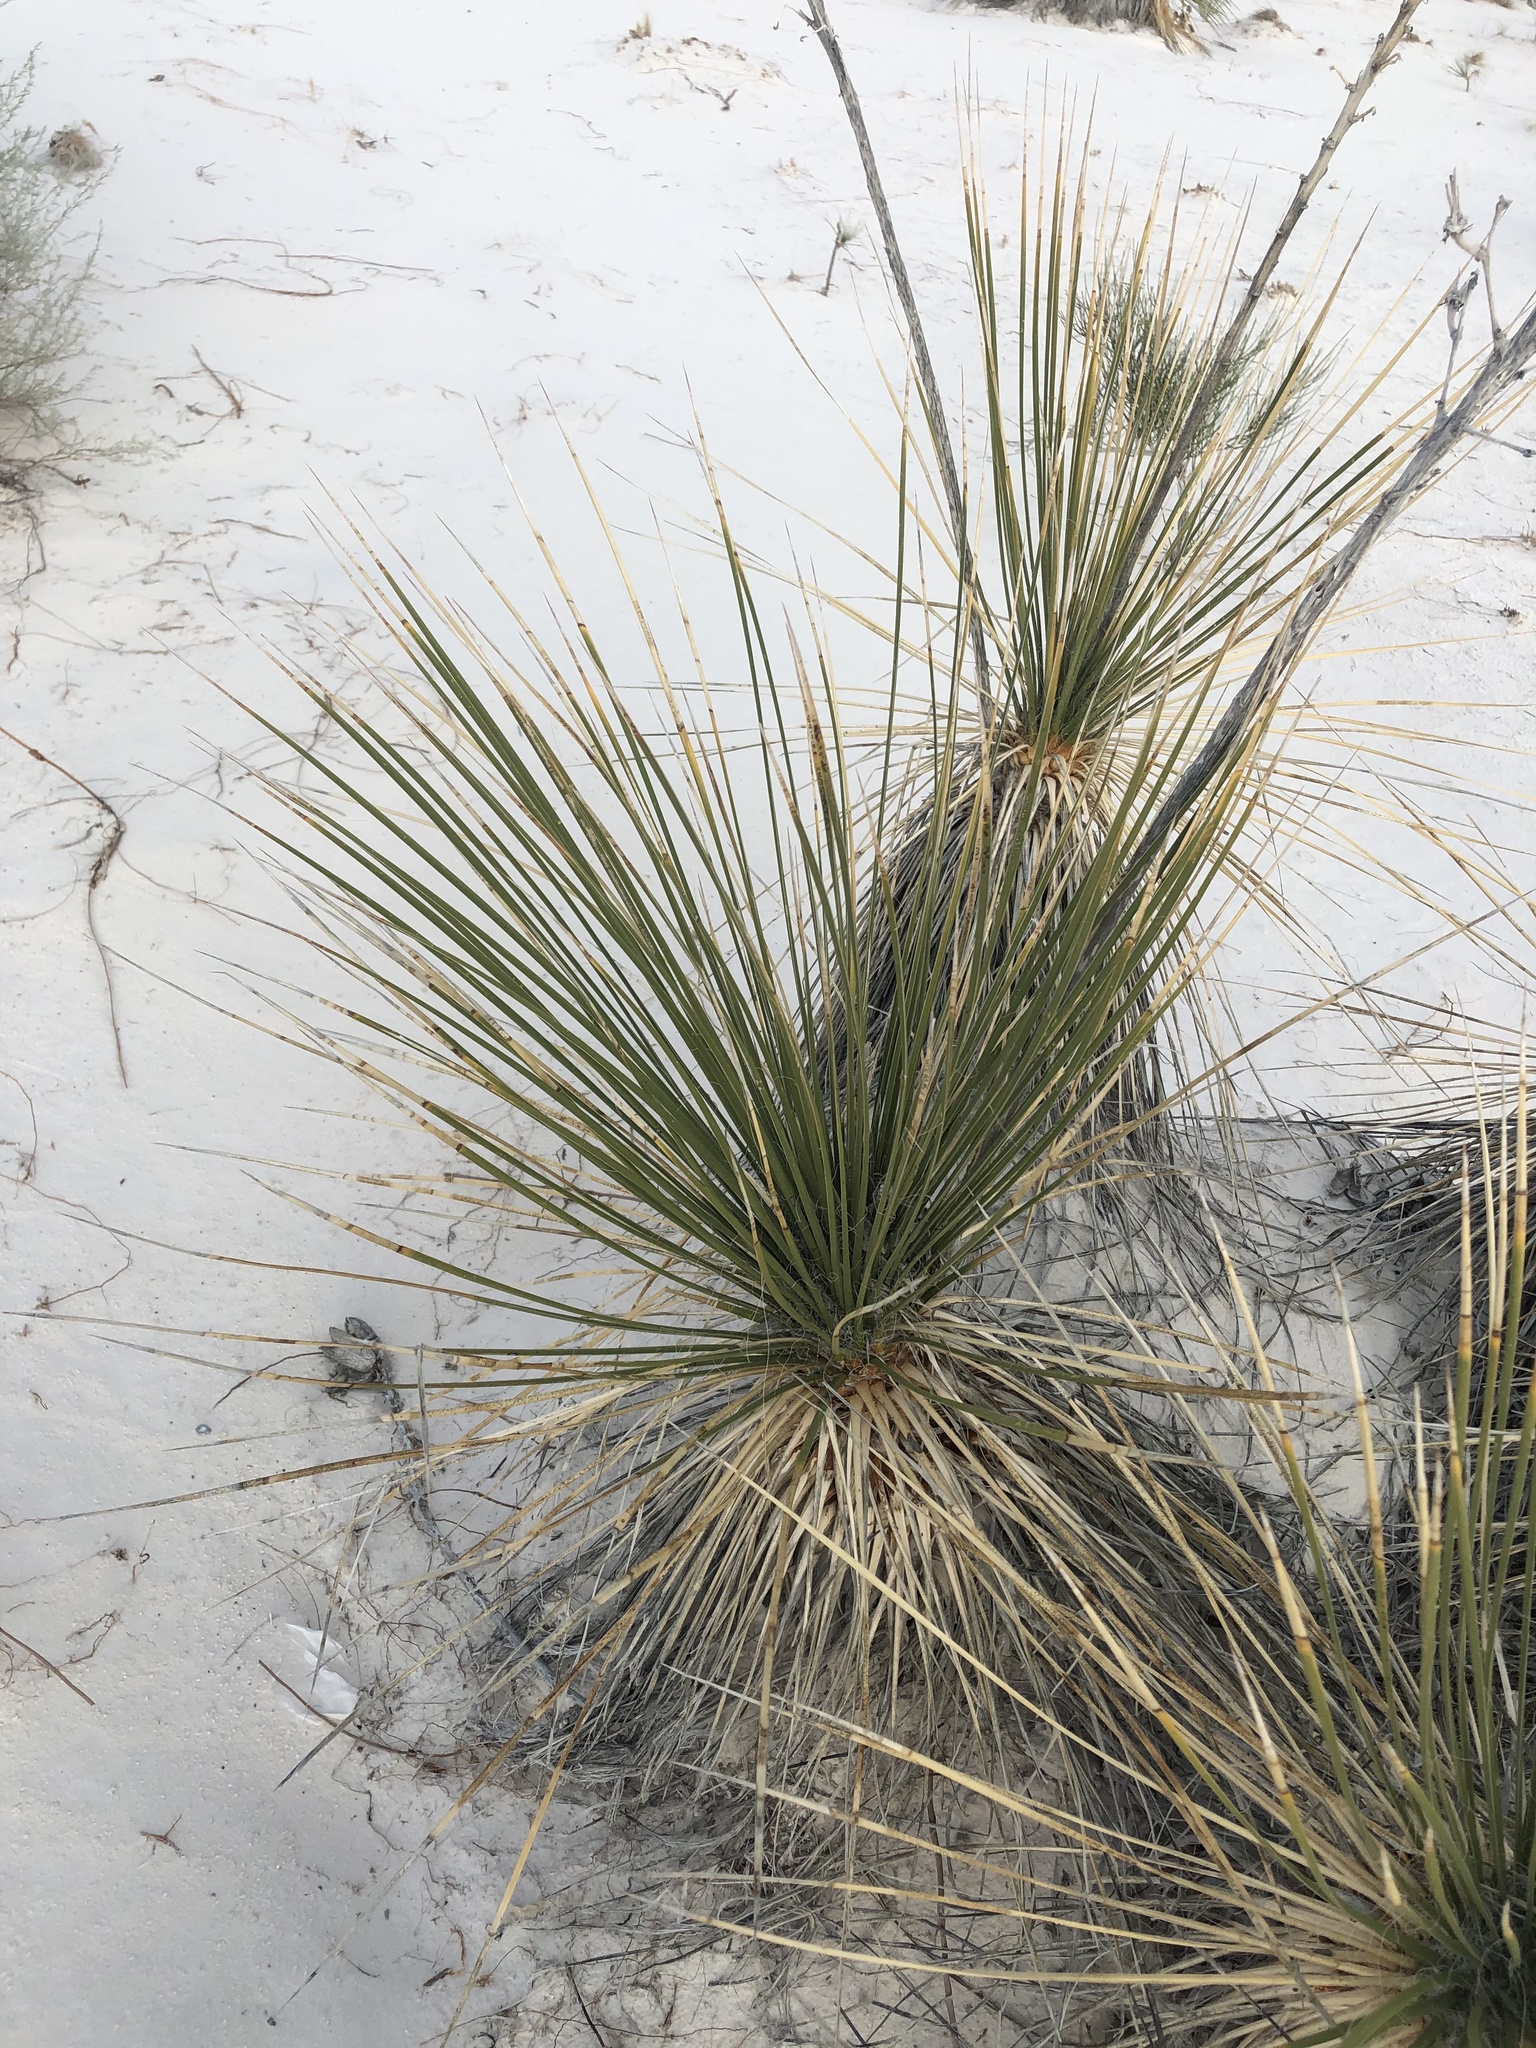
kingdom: Plantae
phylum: Tracheophyta
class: Liliopsida
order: Asparagales
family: Asparagaceae
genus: Yucca
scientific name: Yucca elata
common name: Palmella
